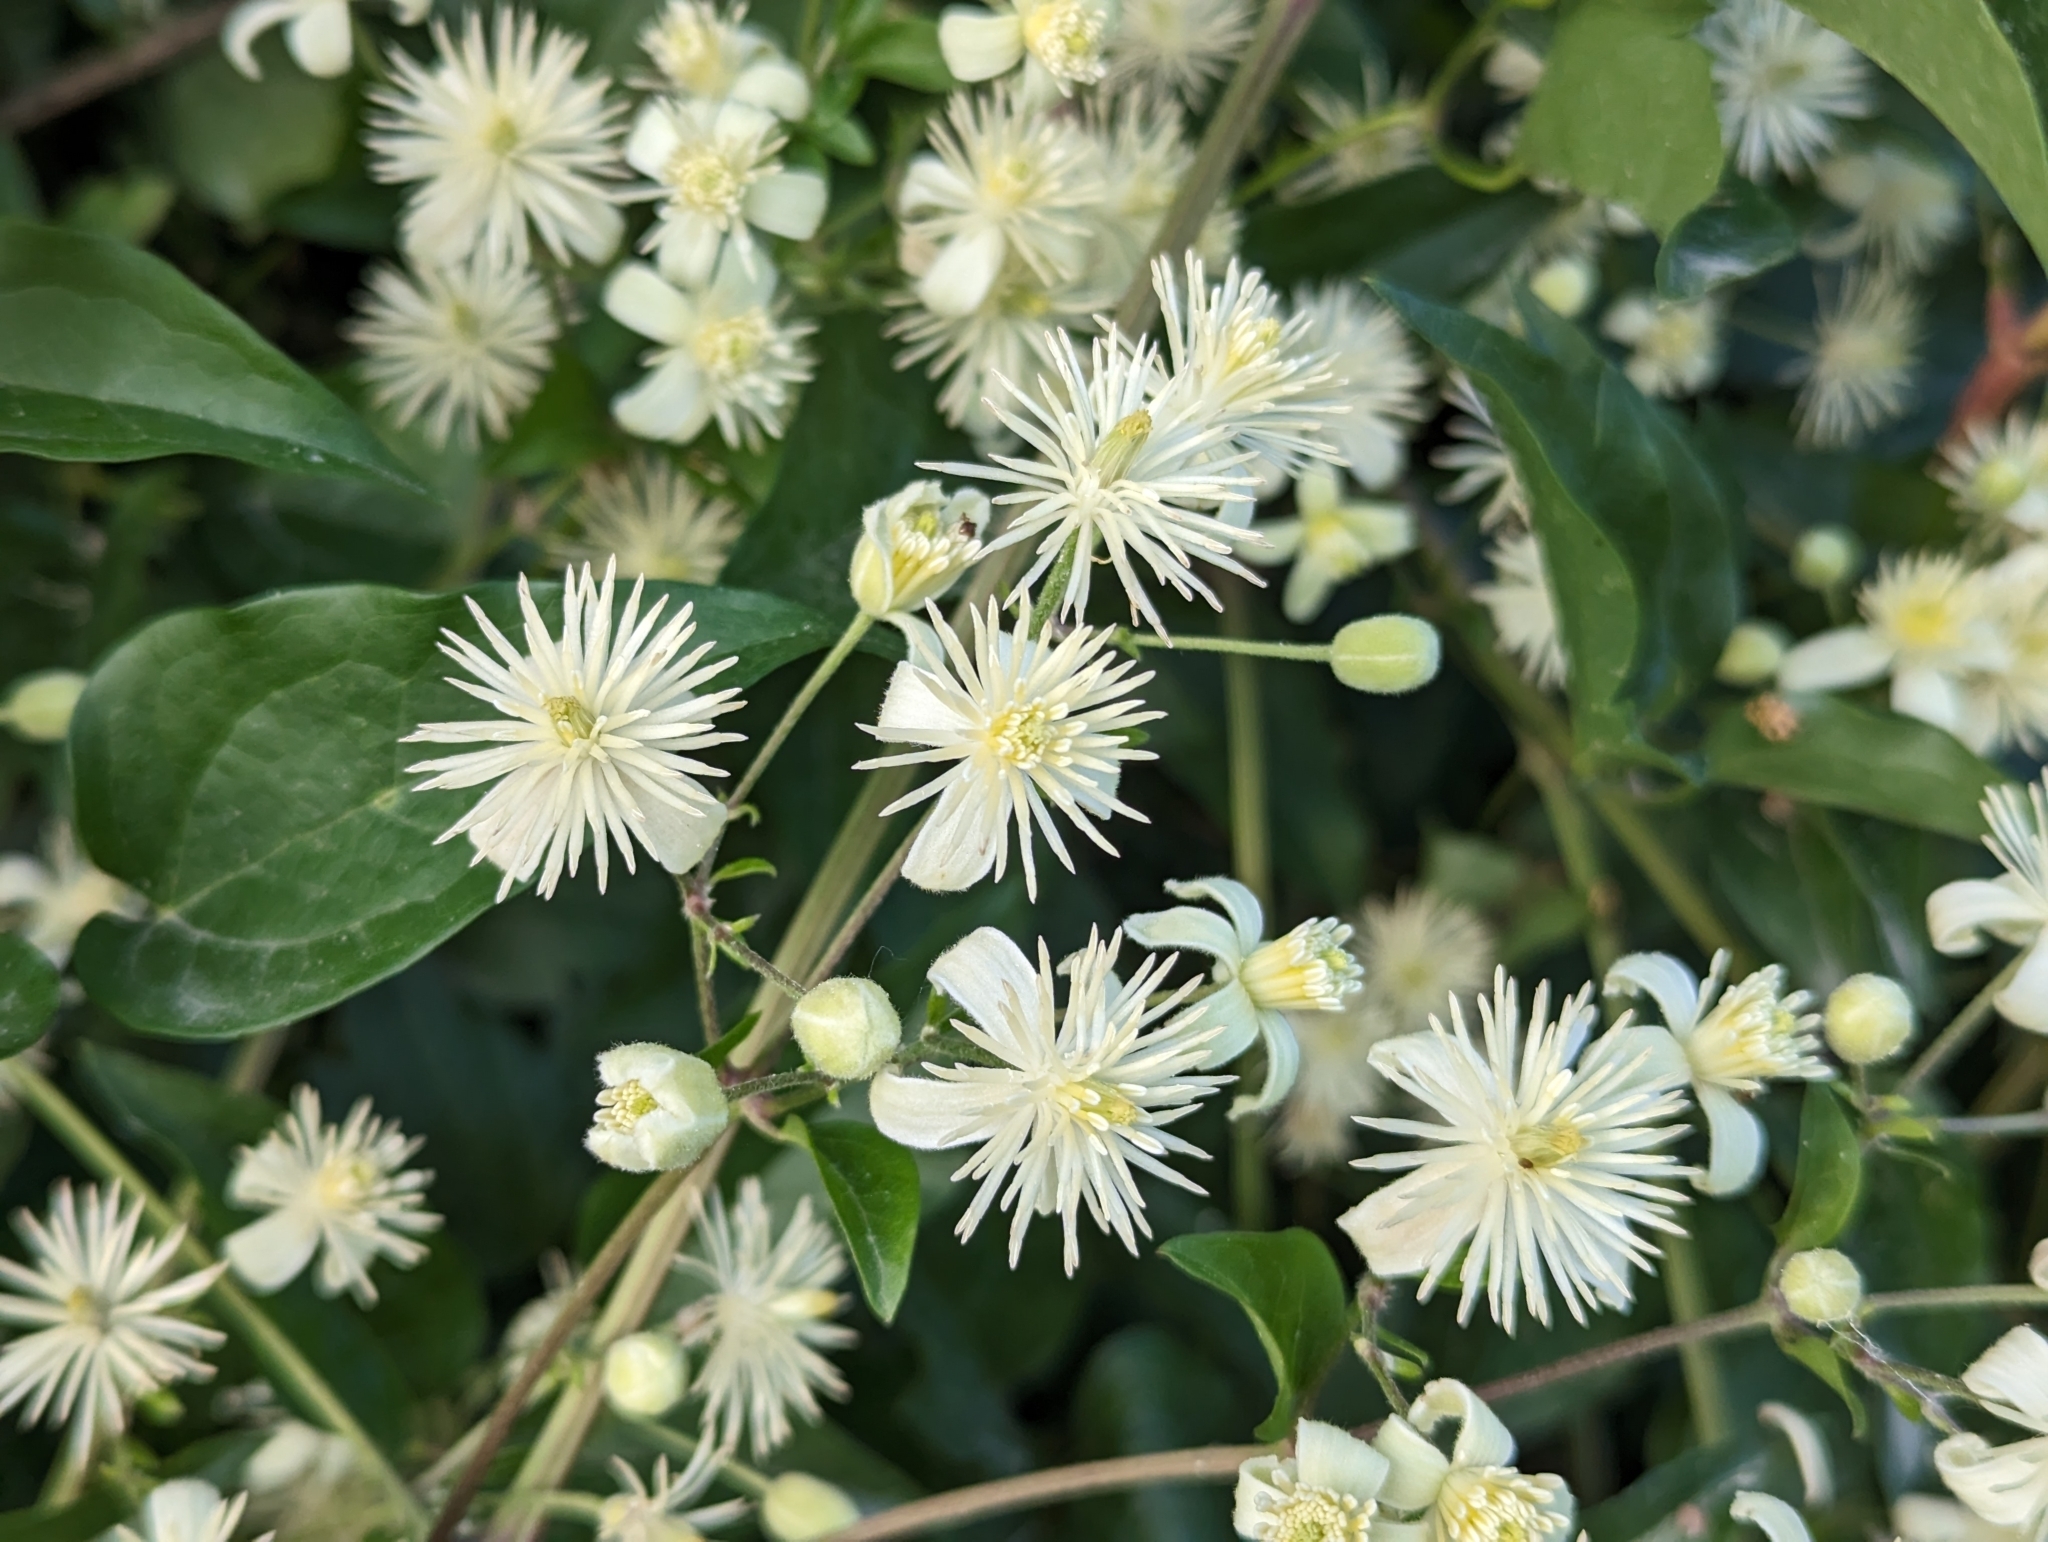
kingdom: Plantae
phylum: Tracheophyta
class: Magnoliopsida
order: Ranunculales
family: Ranunculaceae
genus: Clematis
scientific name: Clematis vitalba
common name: Evergreen clematis
